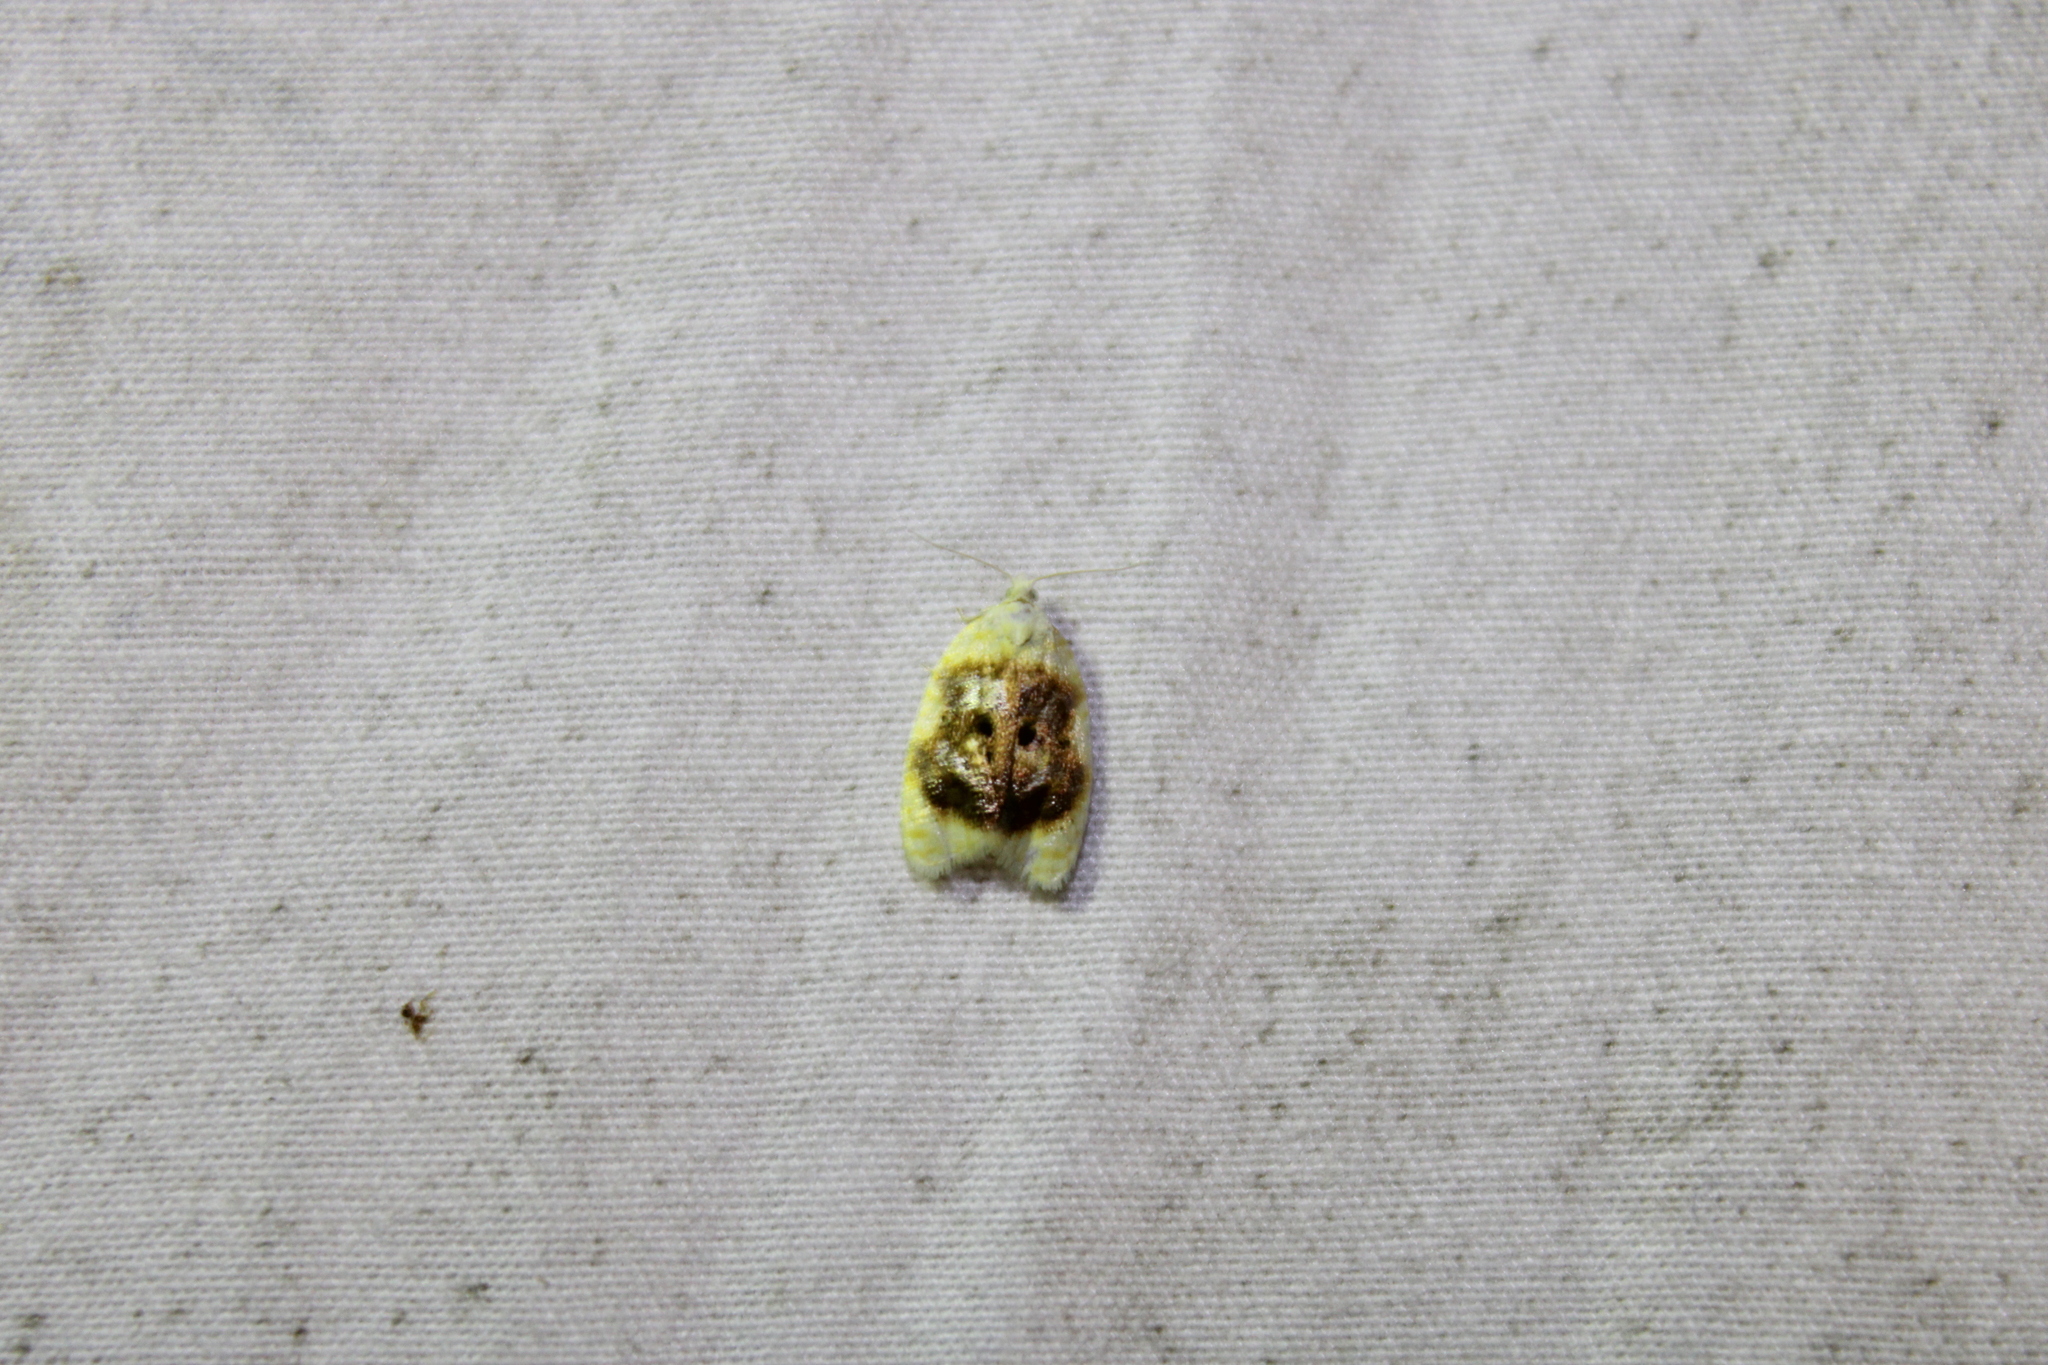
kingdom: Animalia
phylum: Arthropoda
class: Insecta
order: Lepidoptera
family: Tortricidae
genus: Acleris
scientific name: Acleris semipurpurana
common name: Oak leaftier moth
